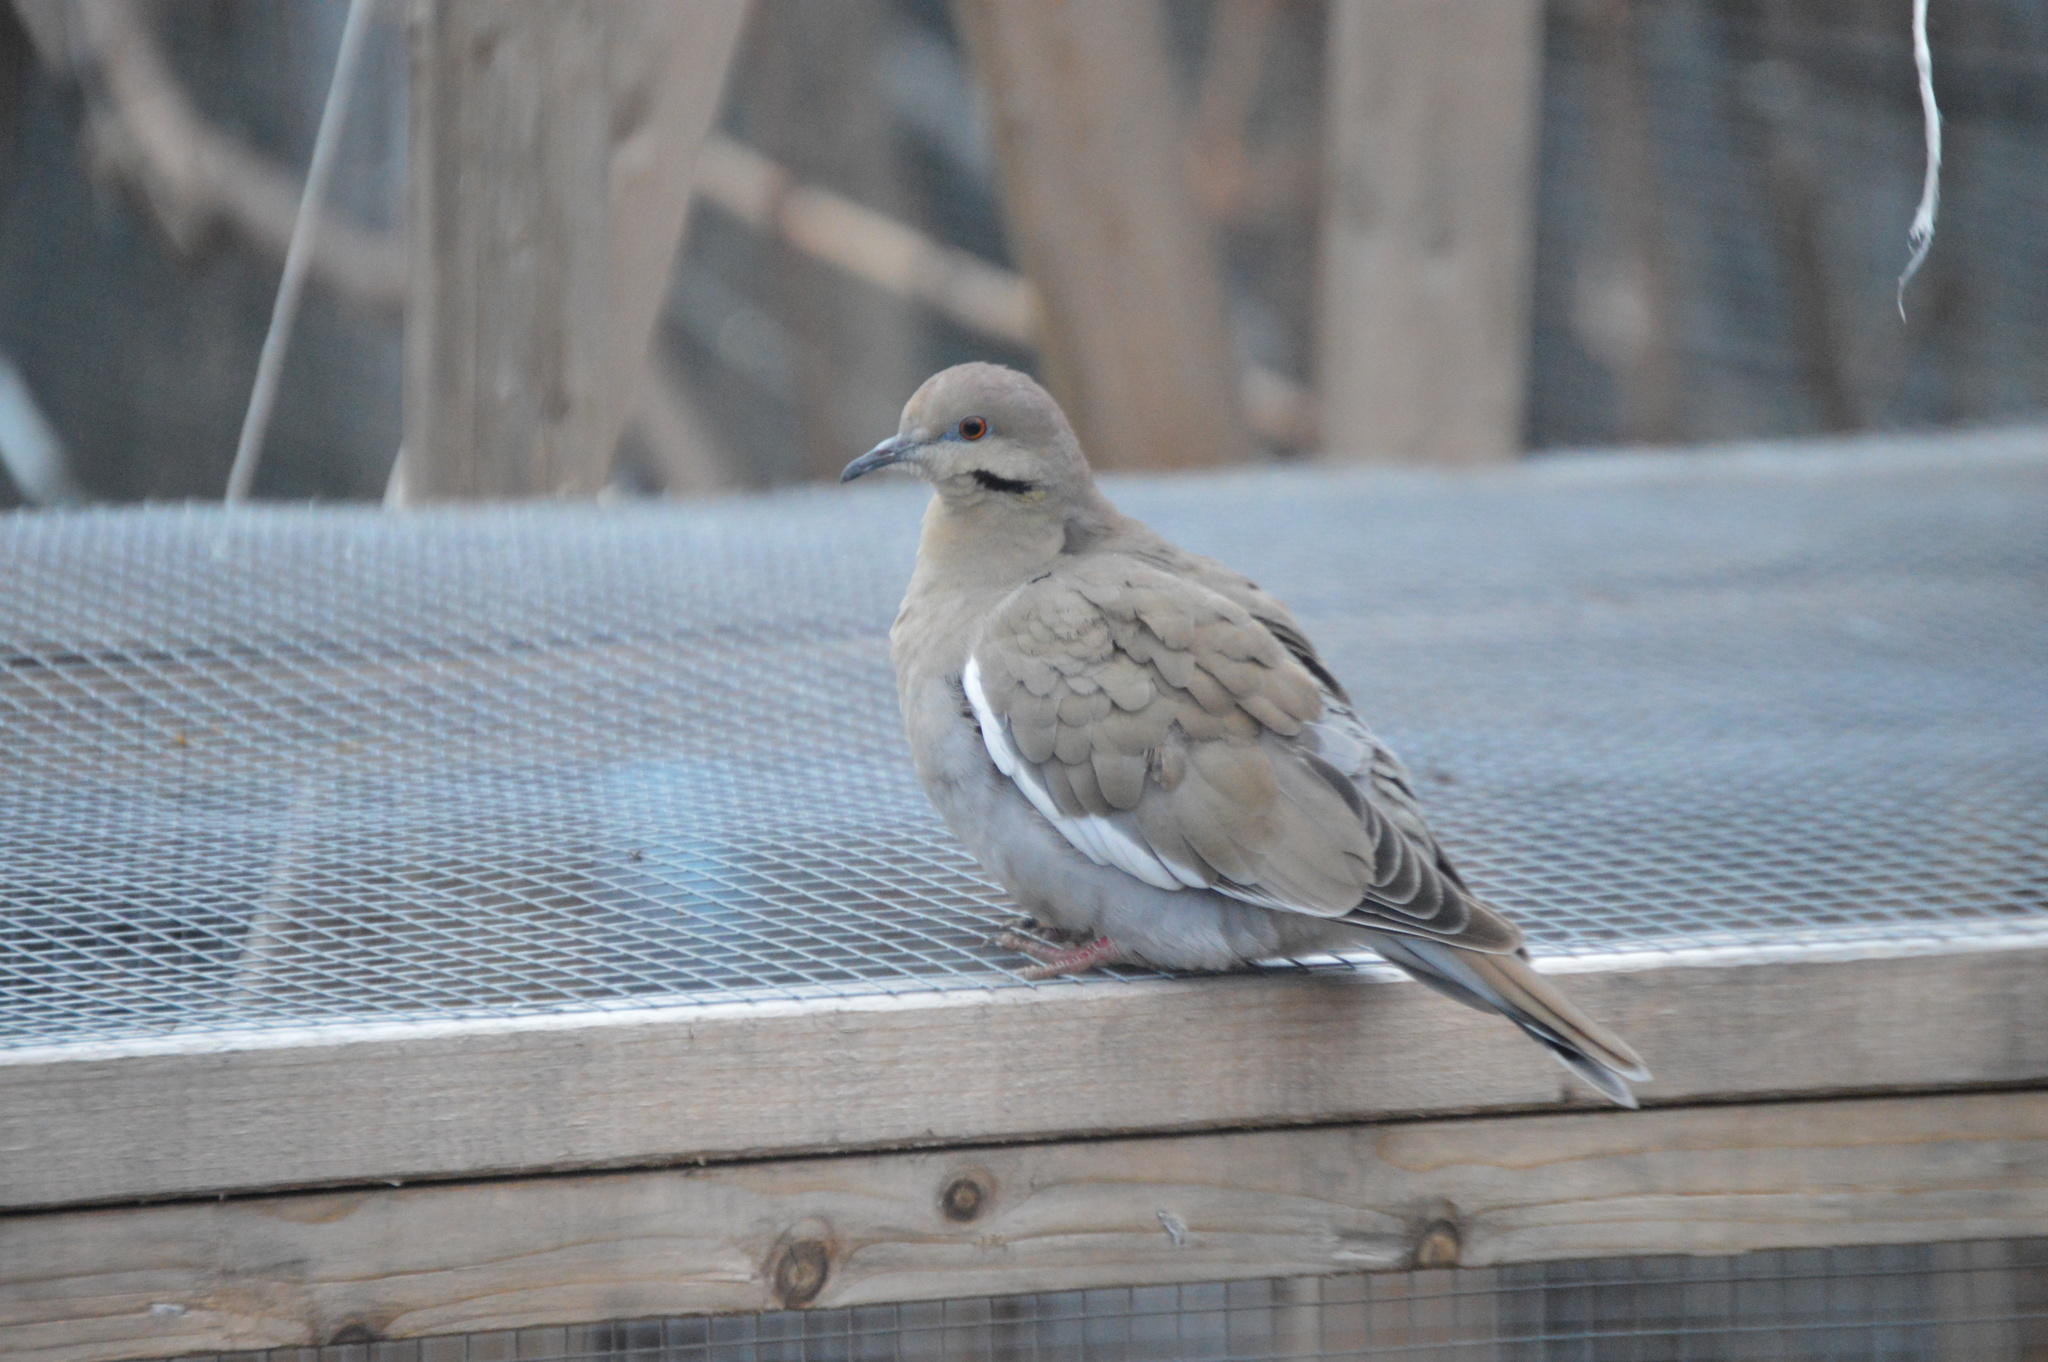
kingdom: Animalia
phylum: Chordata
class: Aves
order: Columbiformes
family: Columbidae
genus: Zenaida
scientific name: Zenaida asiatica
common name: White-winged dove
